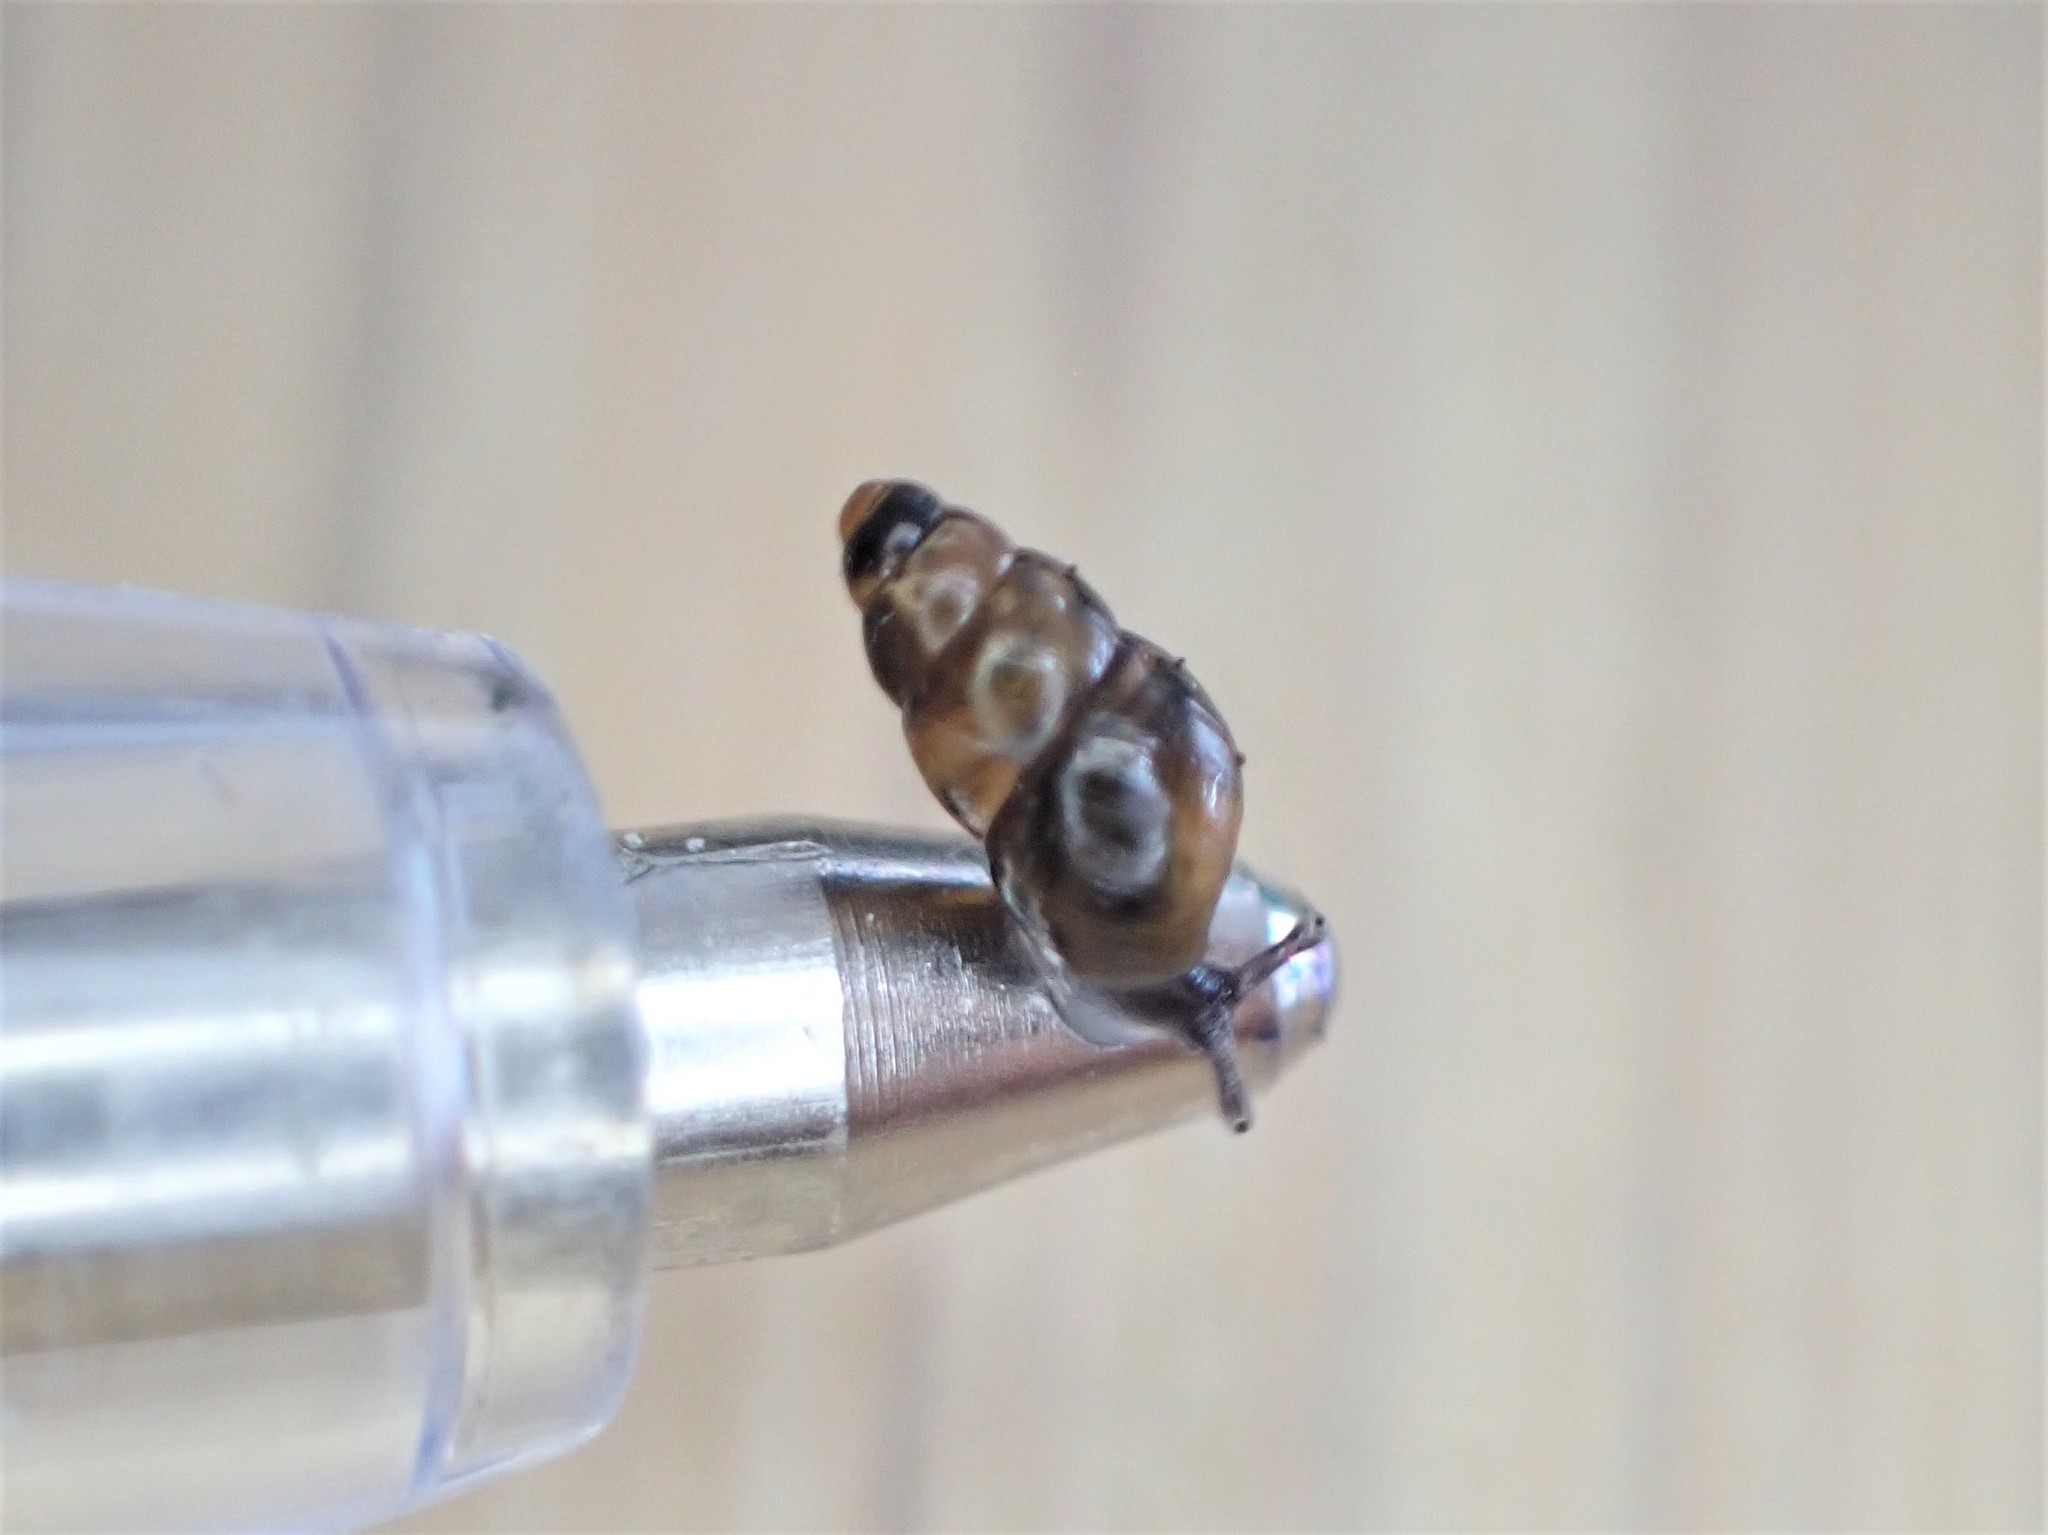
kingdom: Animalia
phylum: Mollusca
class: Gastropoda
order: Stylommatophora
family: Achatinellidae
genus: Tornatellinops
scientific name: Tornatellinops novoseelandicus
